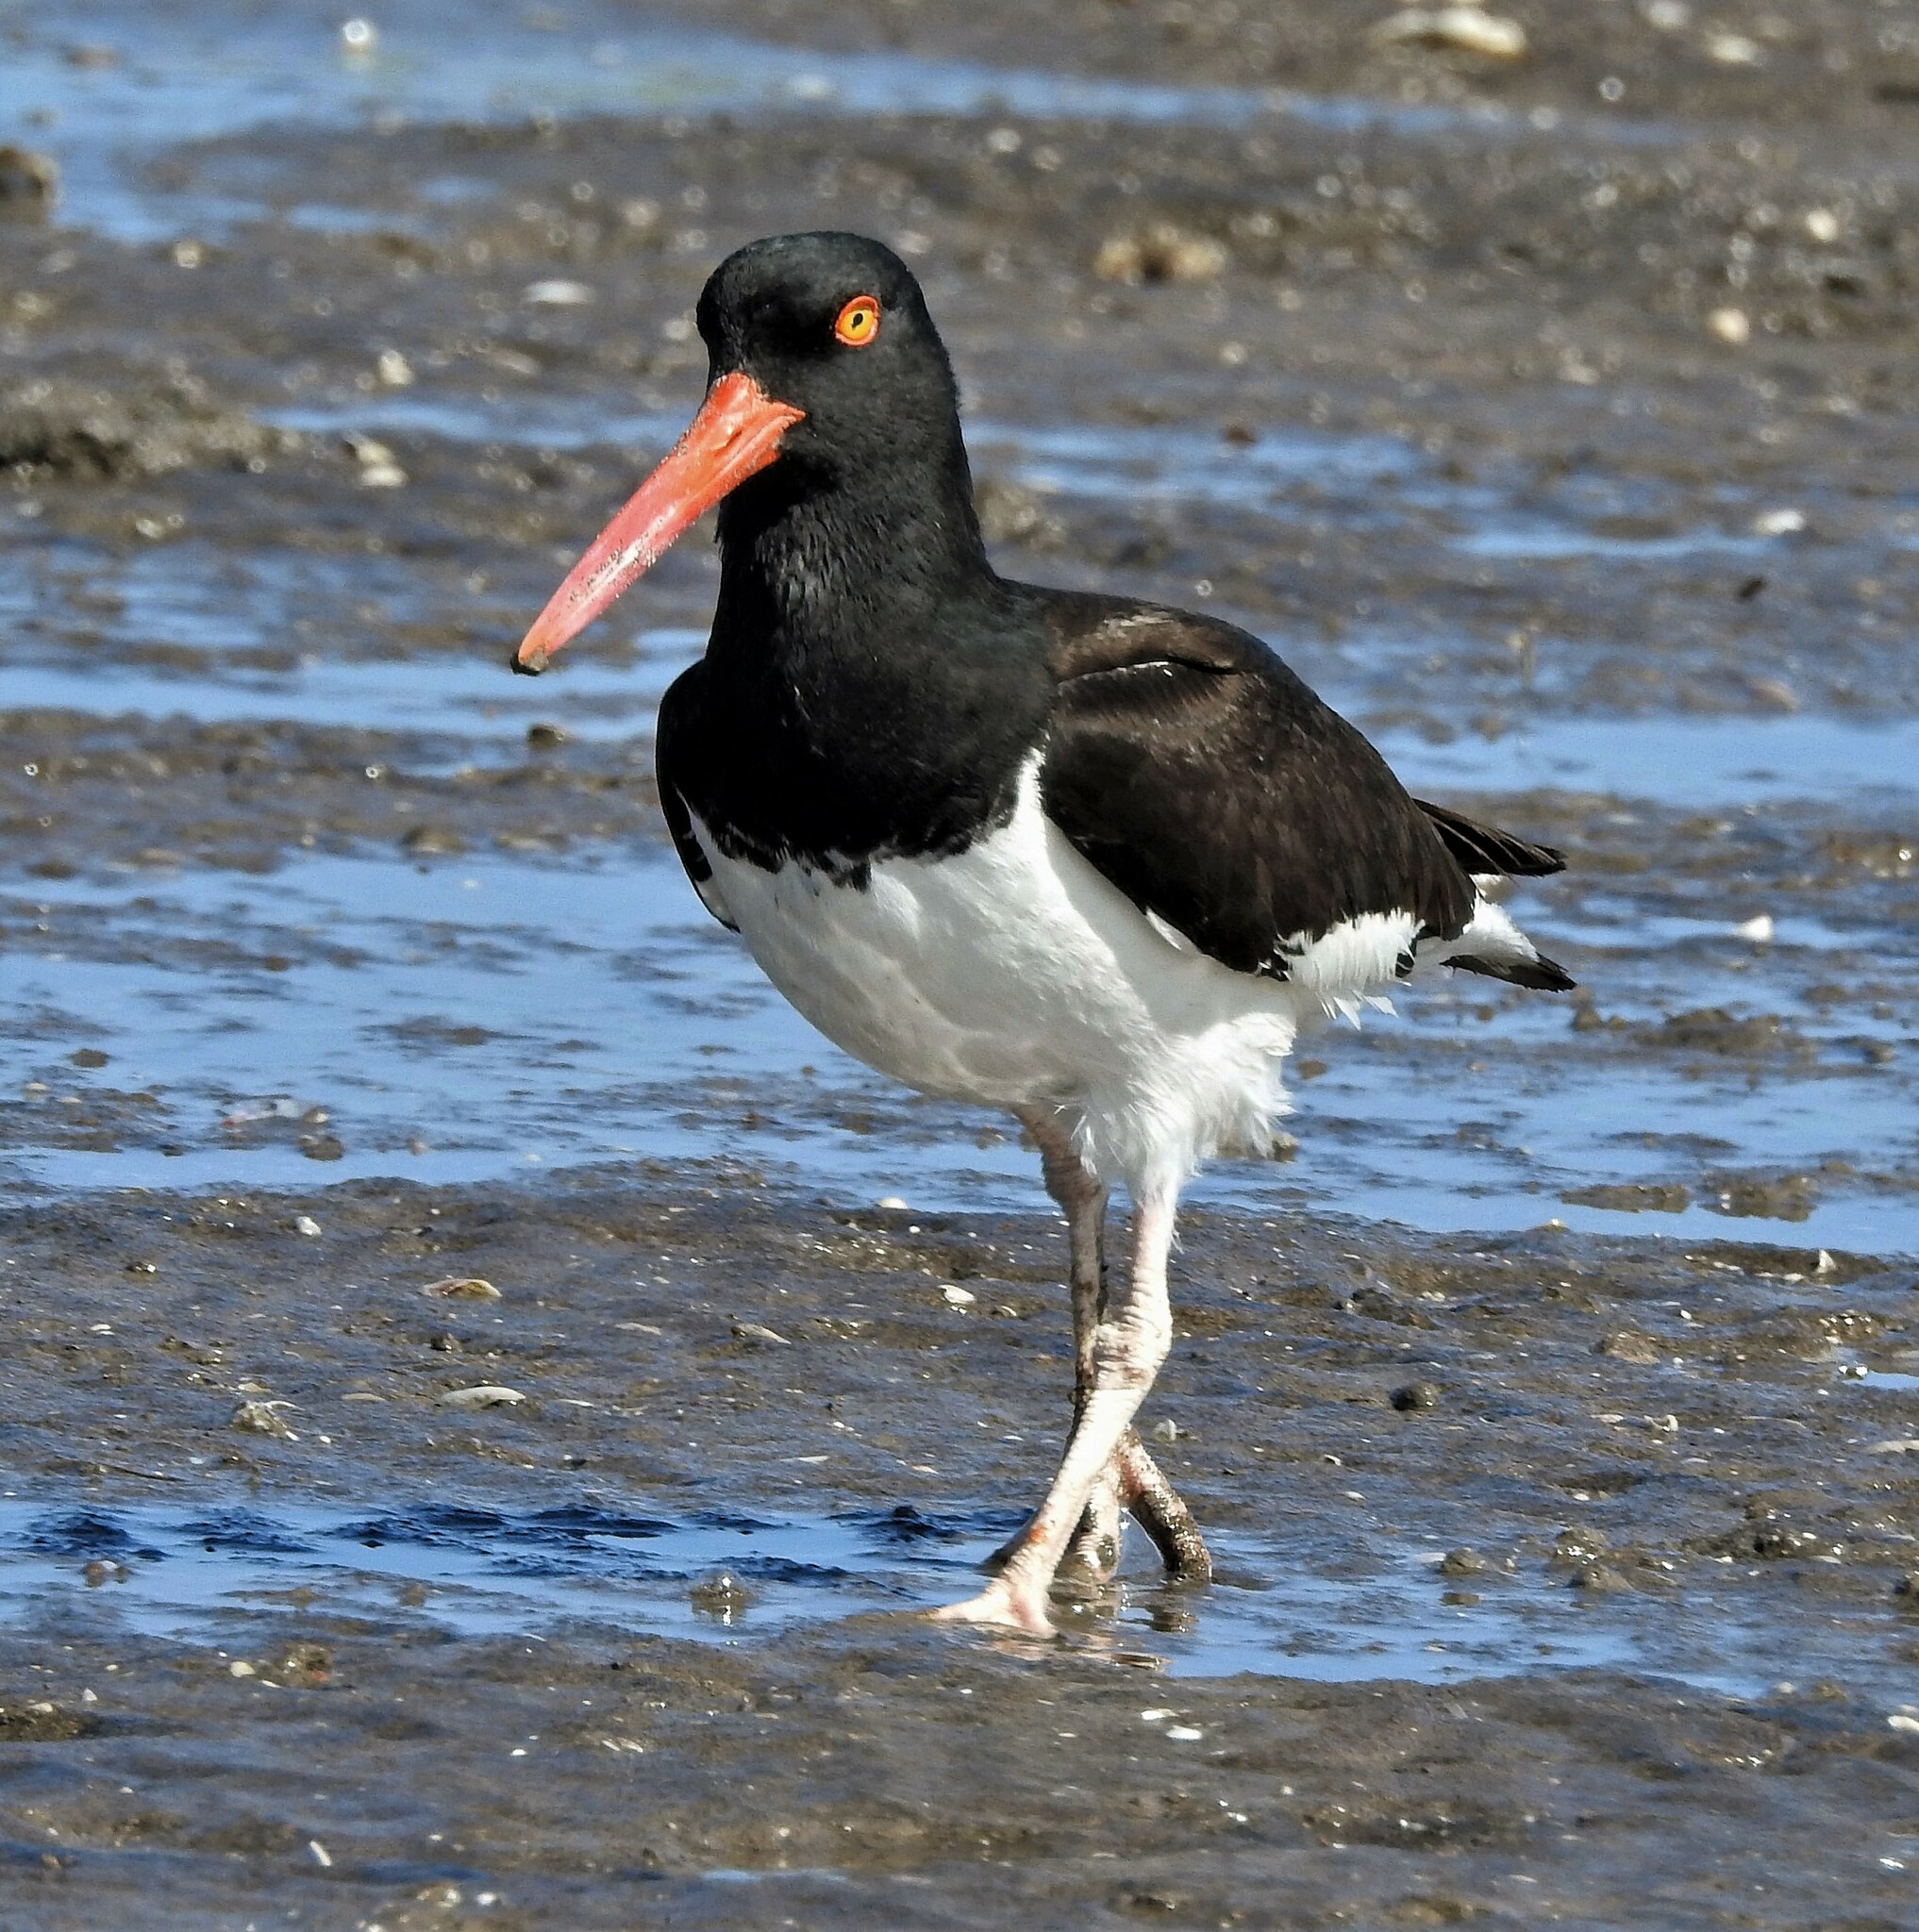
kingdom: Animalia
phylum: Chordata
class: Aves
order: Charadriiformes
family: Haematopodidae
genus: Haematopus
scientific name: Haematopus palliatus
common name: American oystercatcher
